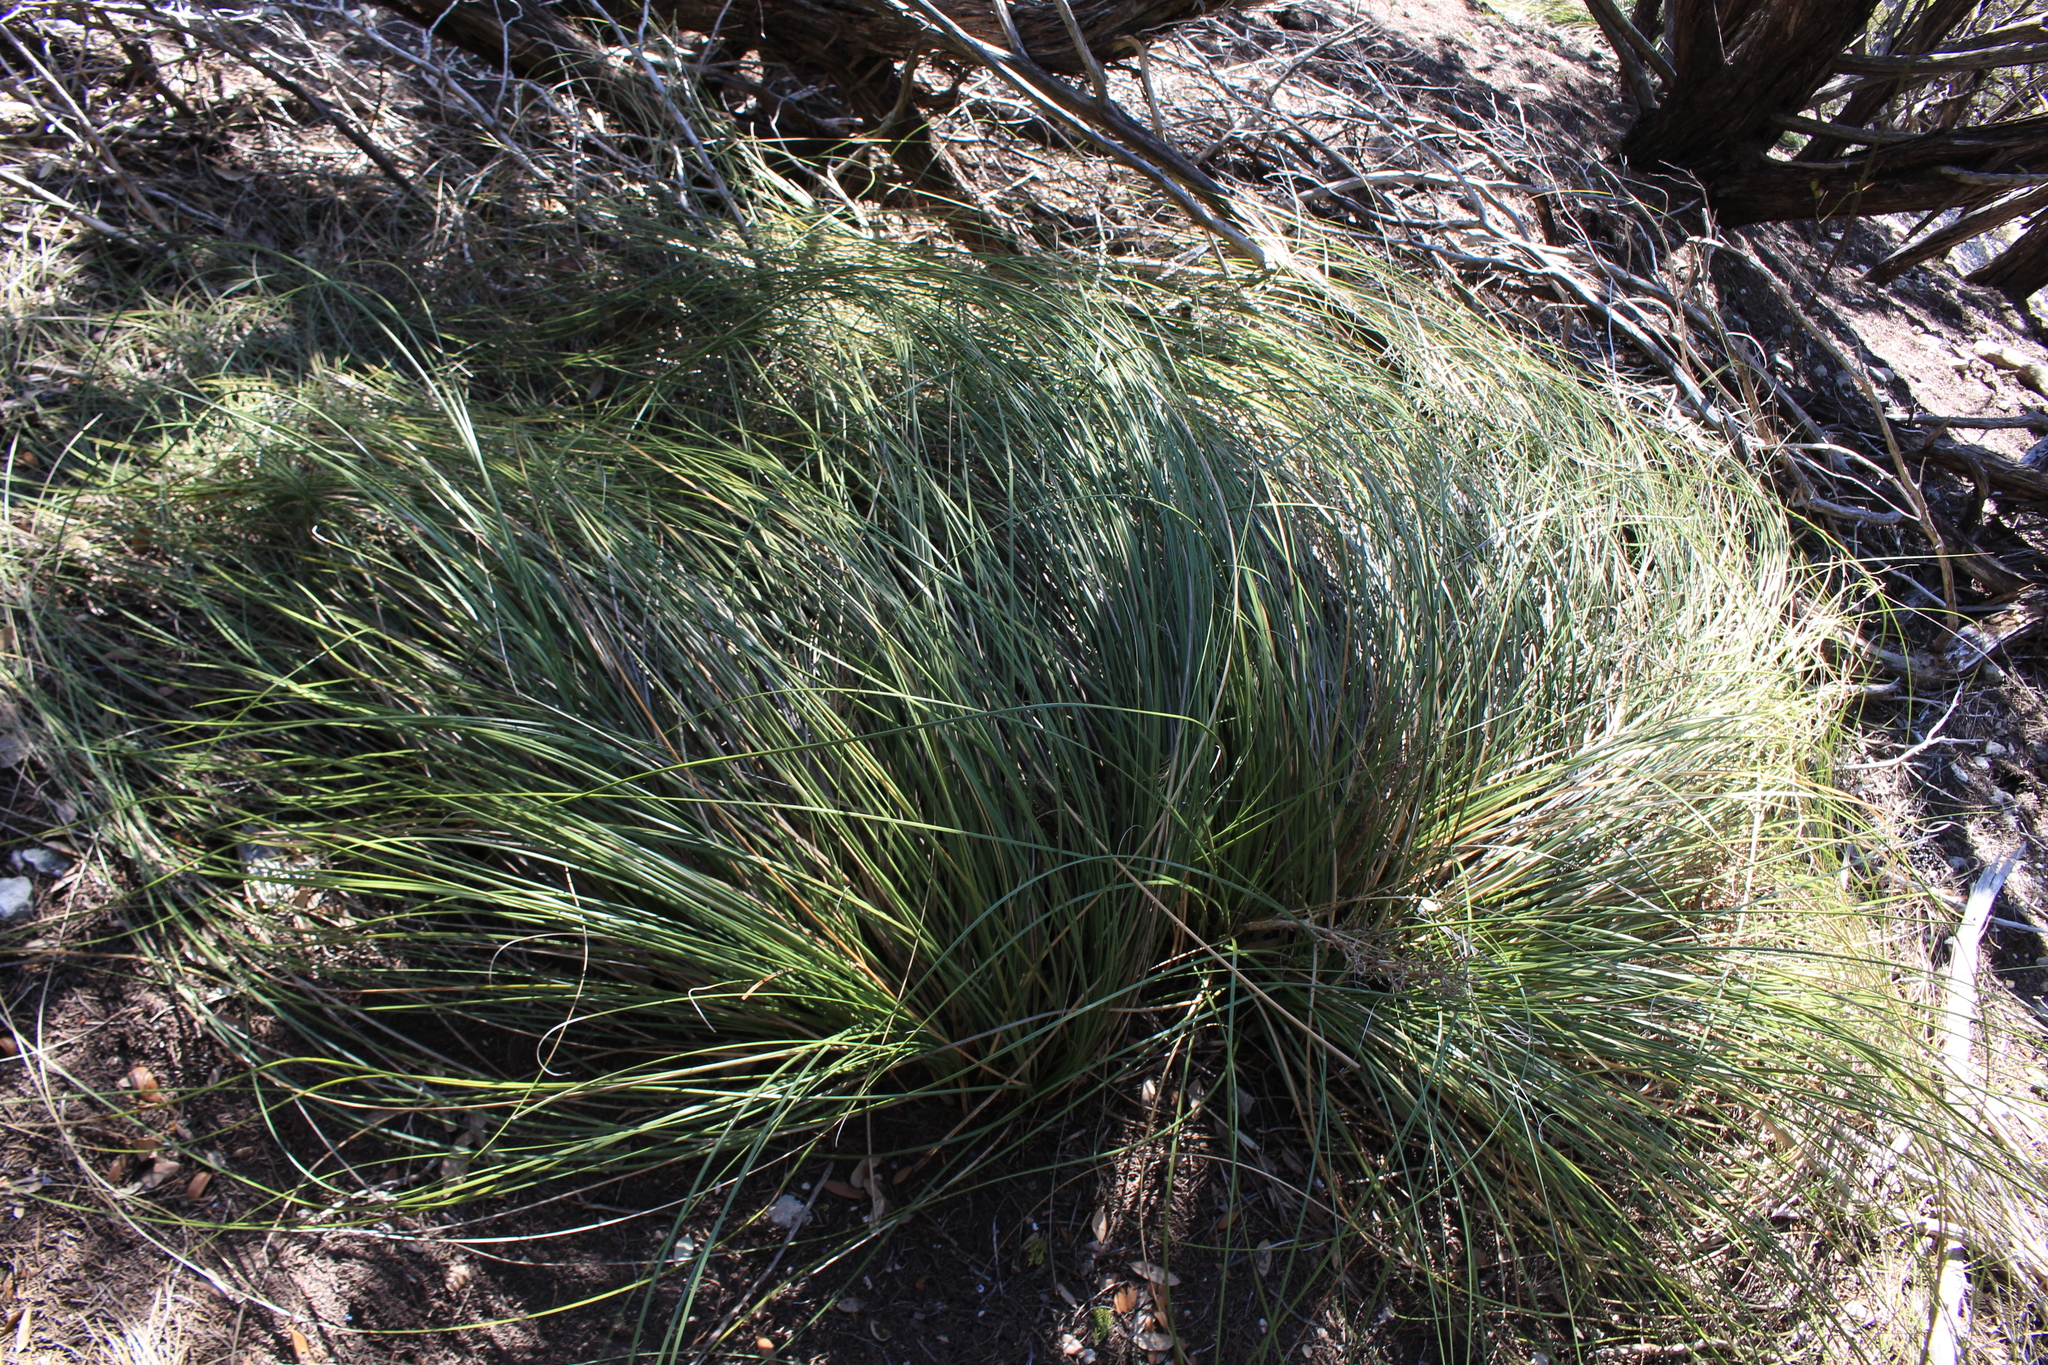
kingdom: Plantae
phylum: Tracheophyta
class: Liliopsida
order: Asparagales
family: Asparagaceae
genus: Nolina
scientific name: Nolina texana
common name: Texas sacahuiste
